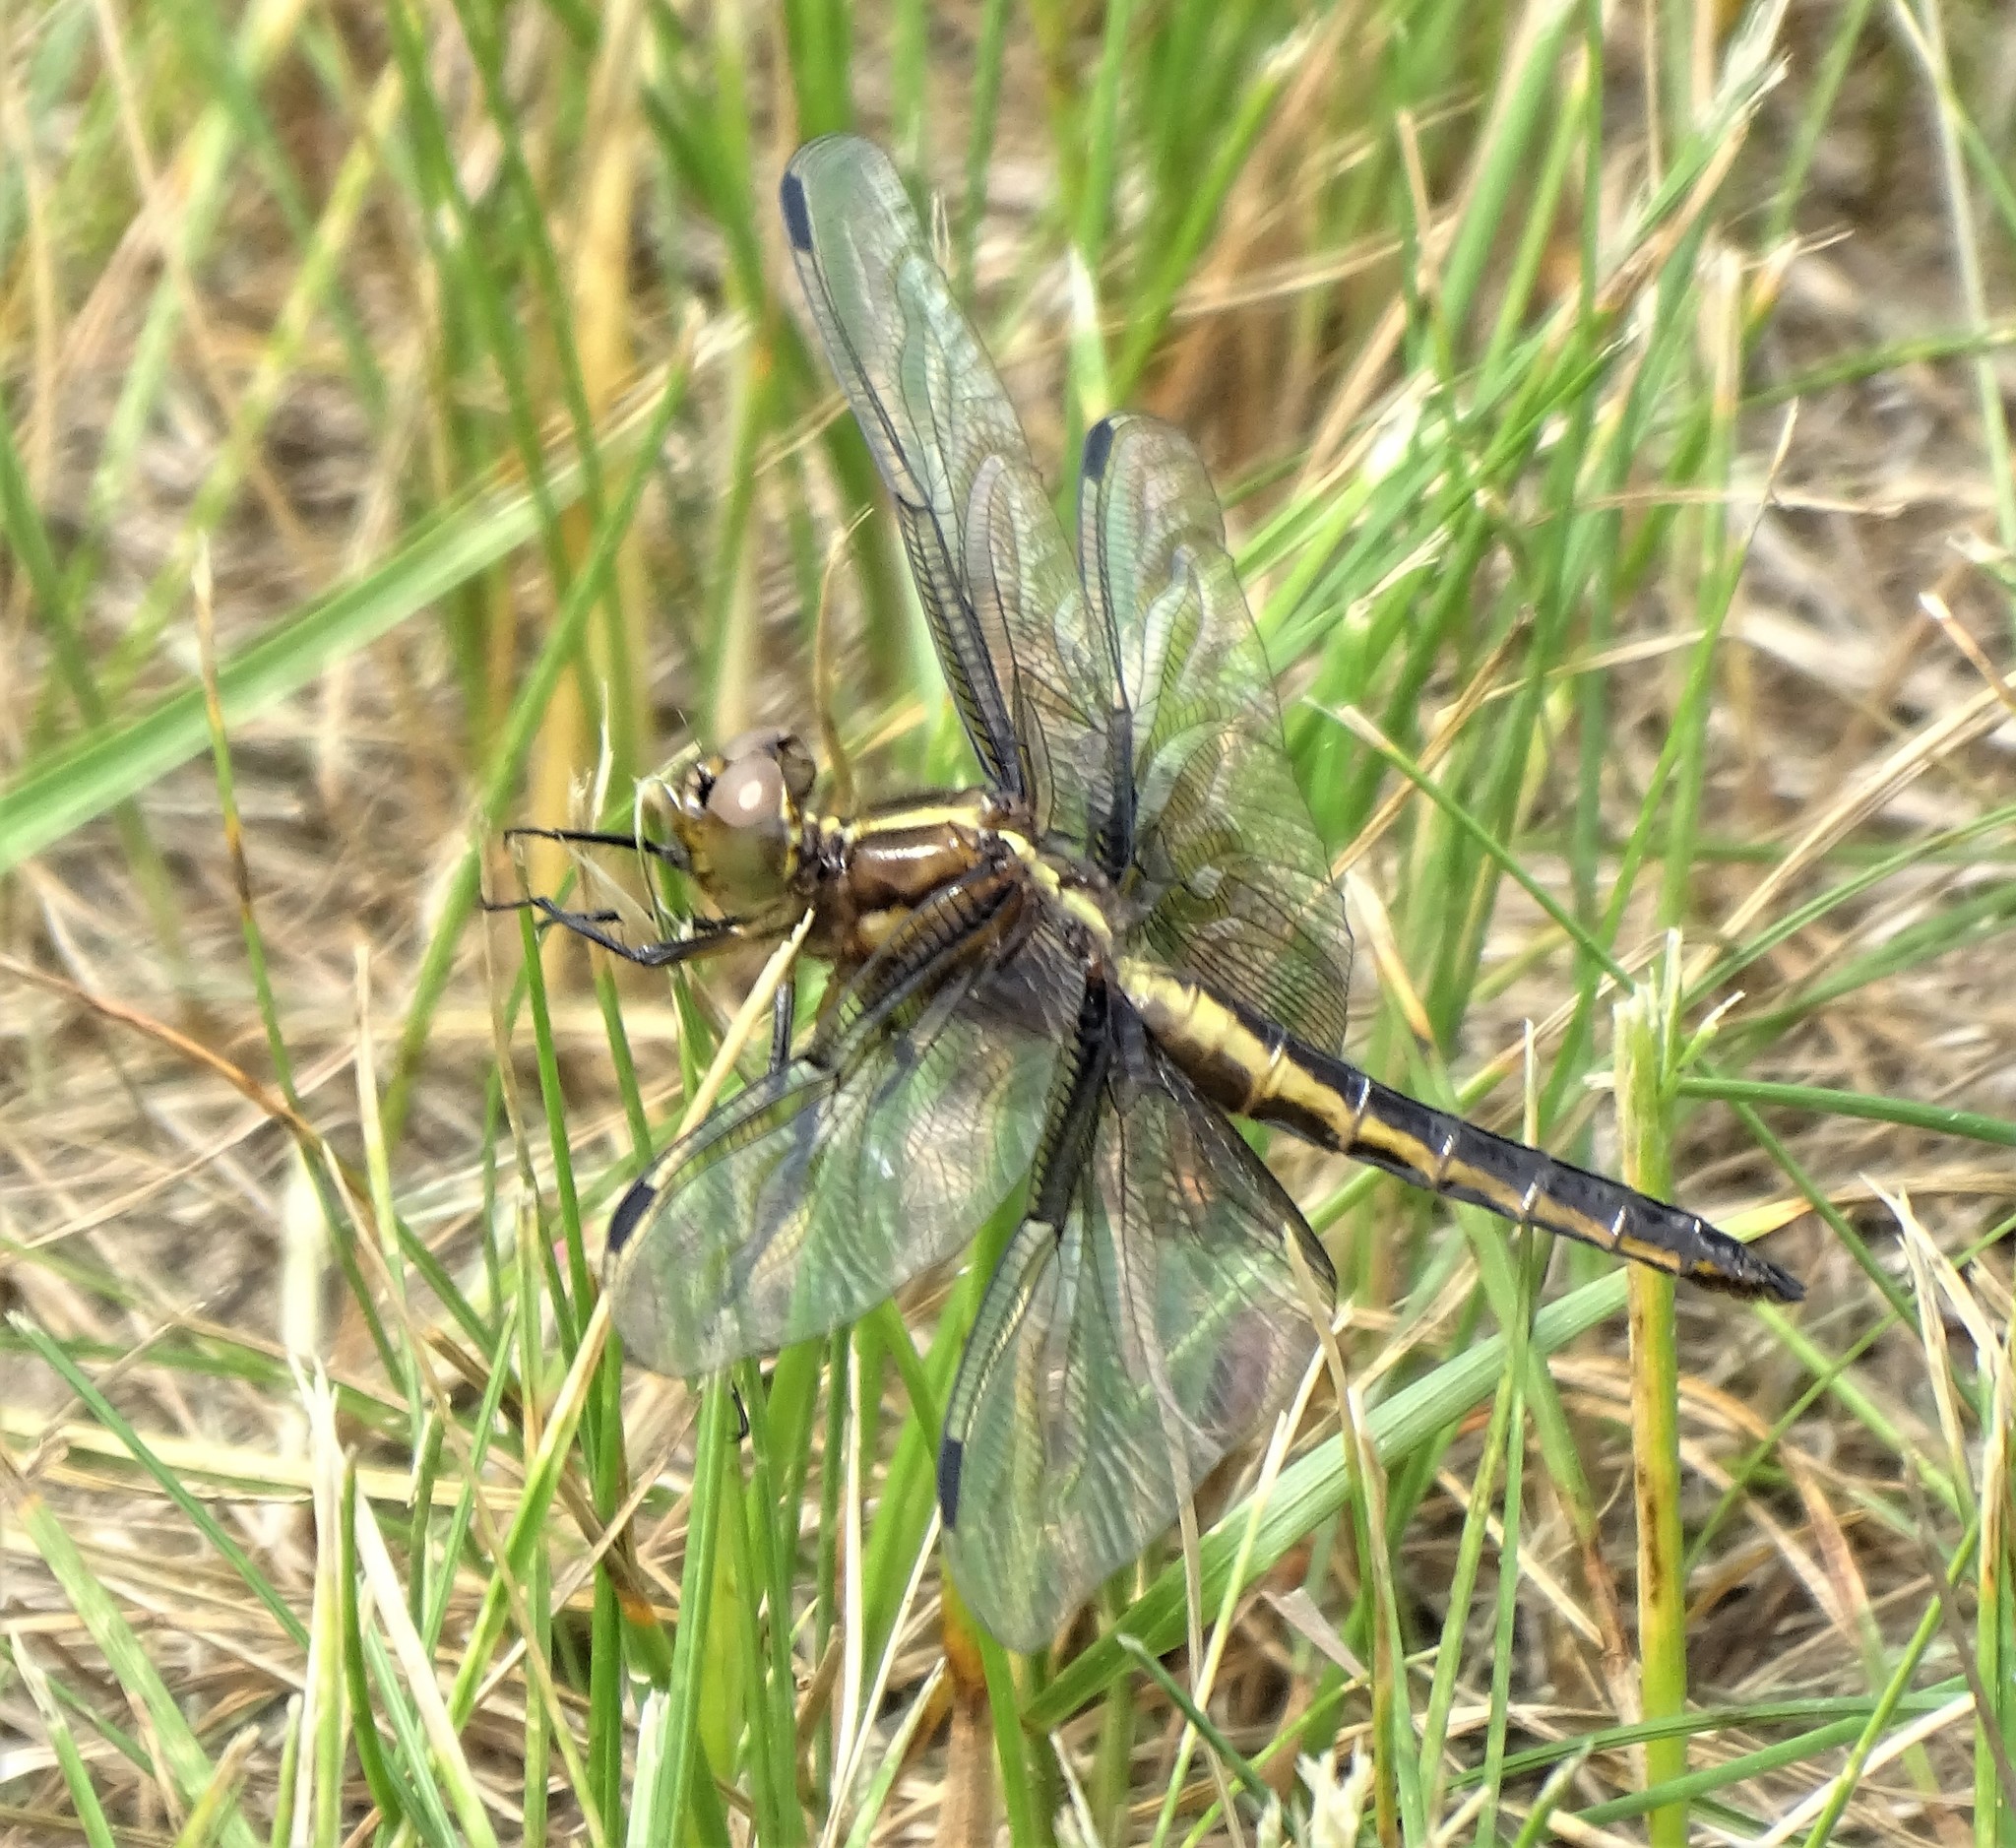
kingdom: Animalia
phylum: Arthropoda
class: Insecta
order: Odonata
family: Libellulidae
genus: Libellula
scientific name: Libellula luctuosa
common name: Widow skimmer
